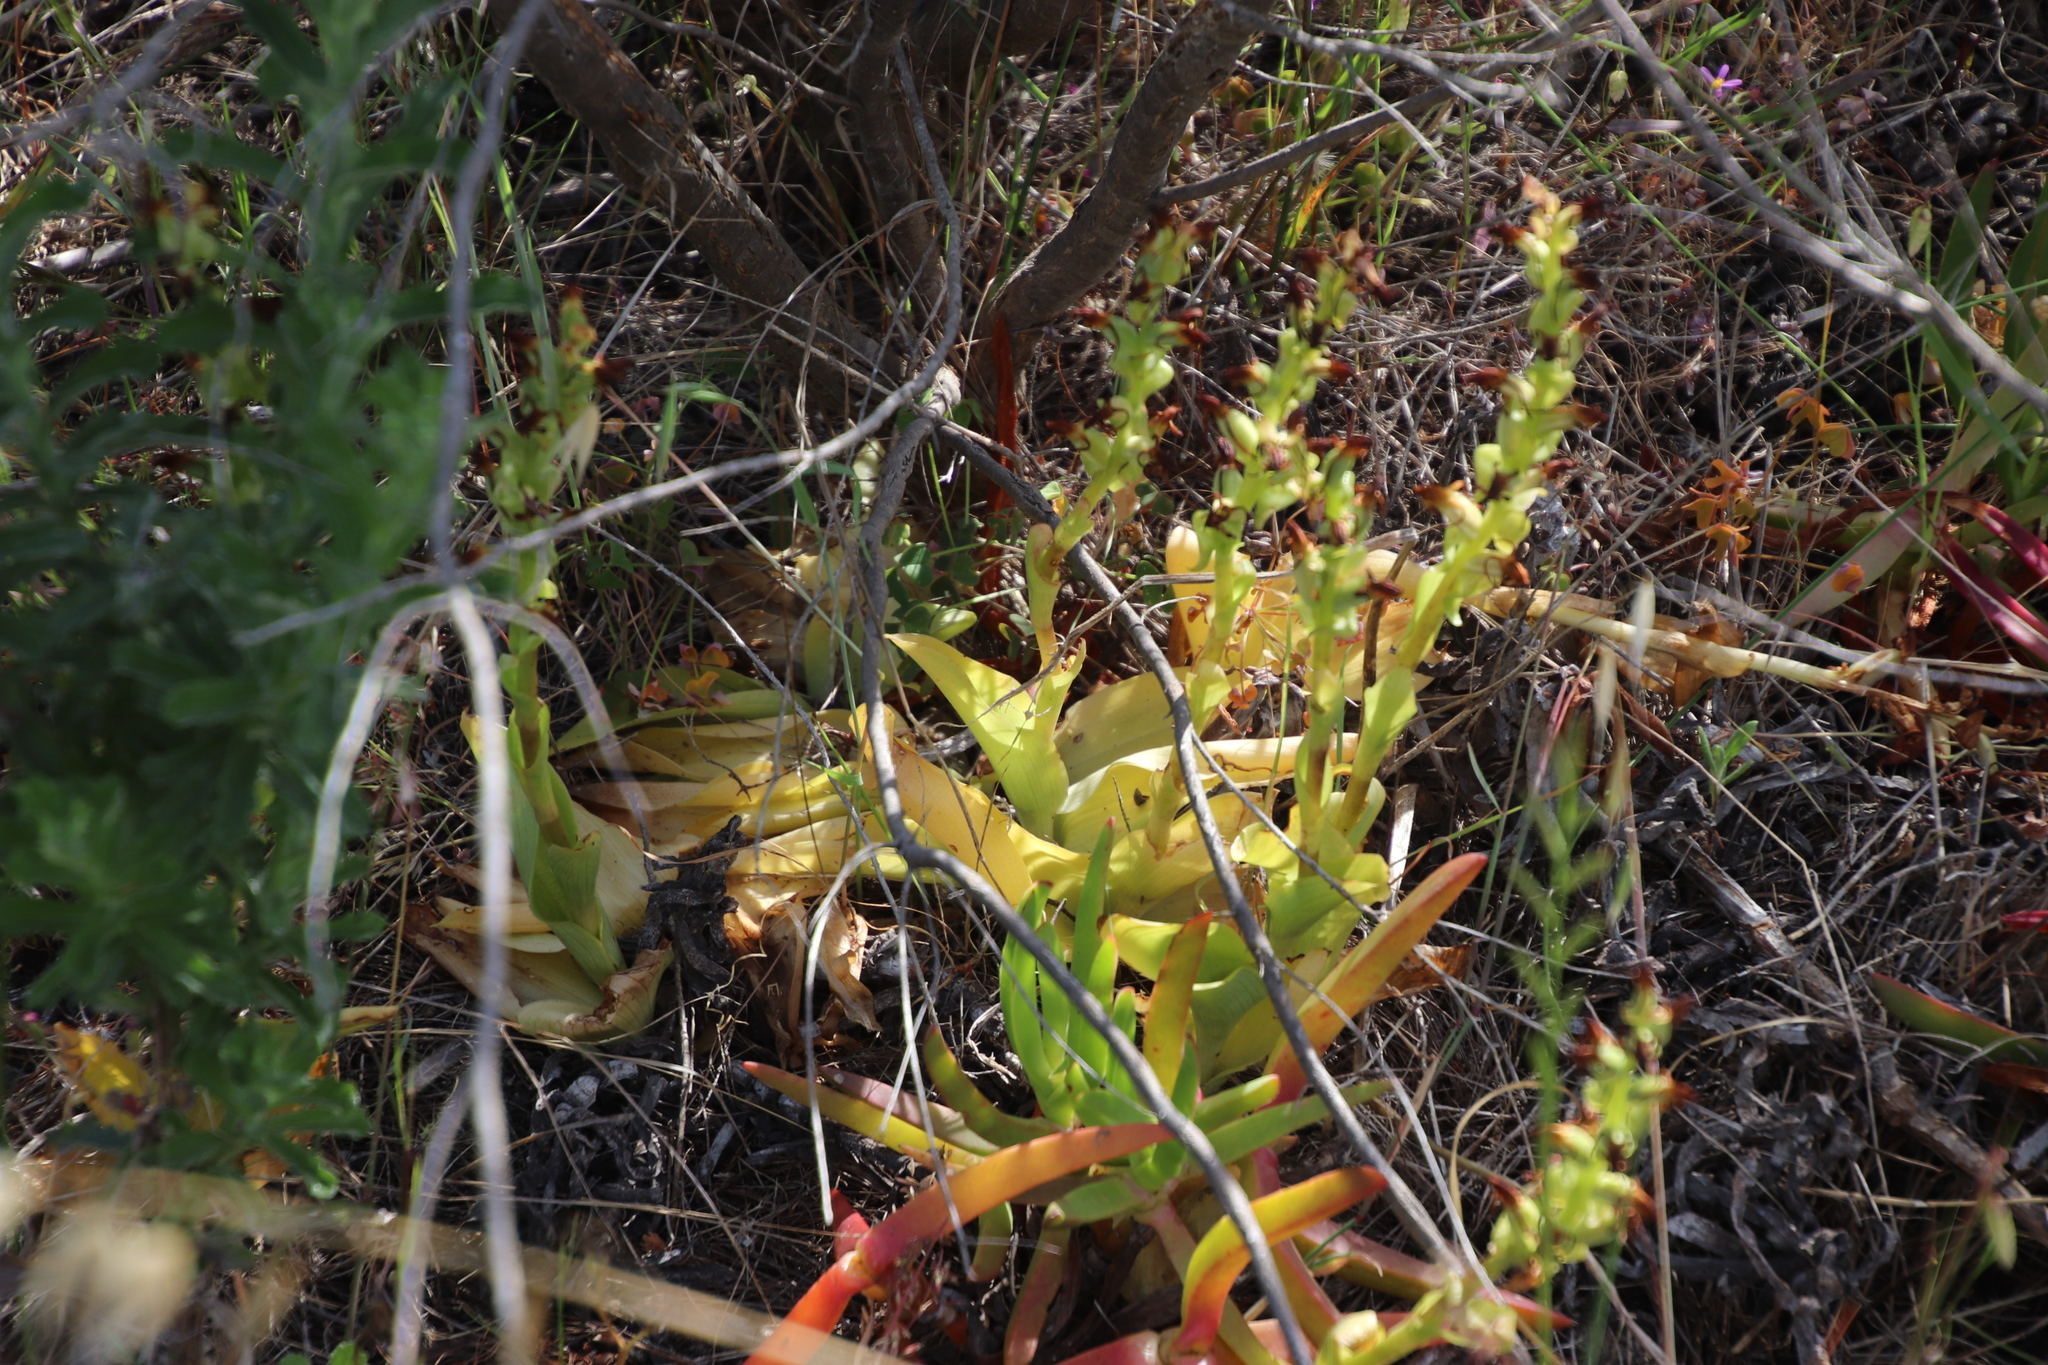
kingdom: Plantae
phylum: Tracheophyta
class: Liliopsida
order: Asparagales
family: Orchidaceae
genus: Satyrium
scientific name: Satyrium odorum
